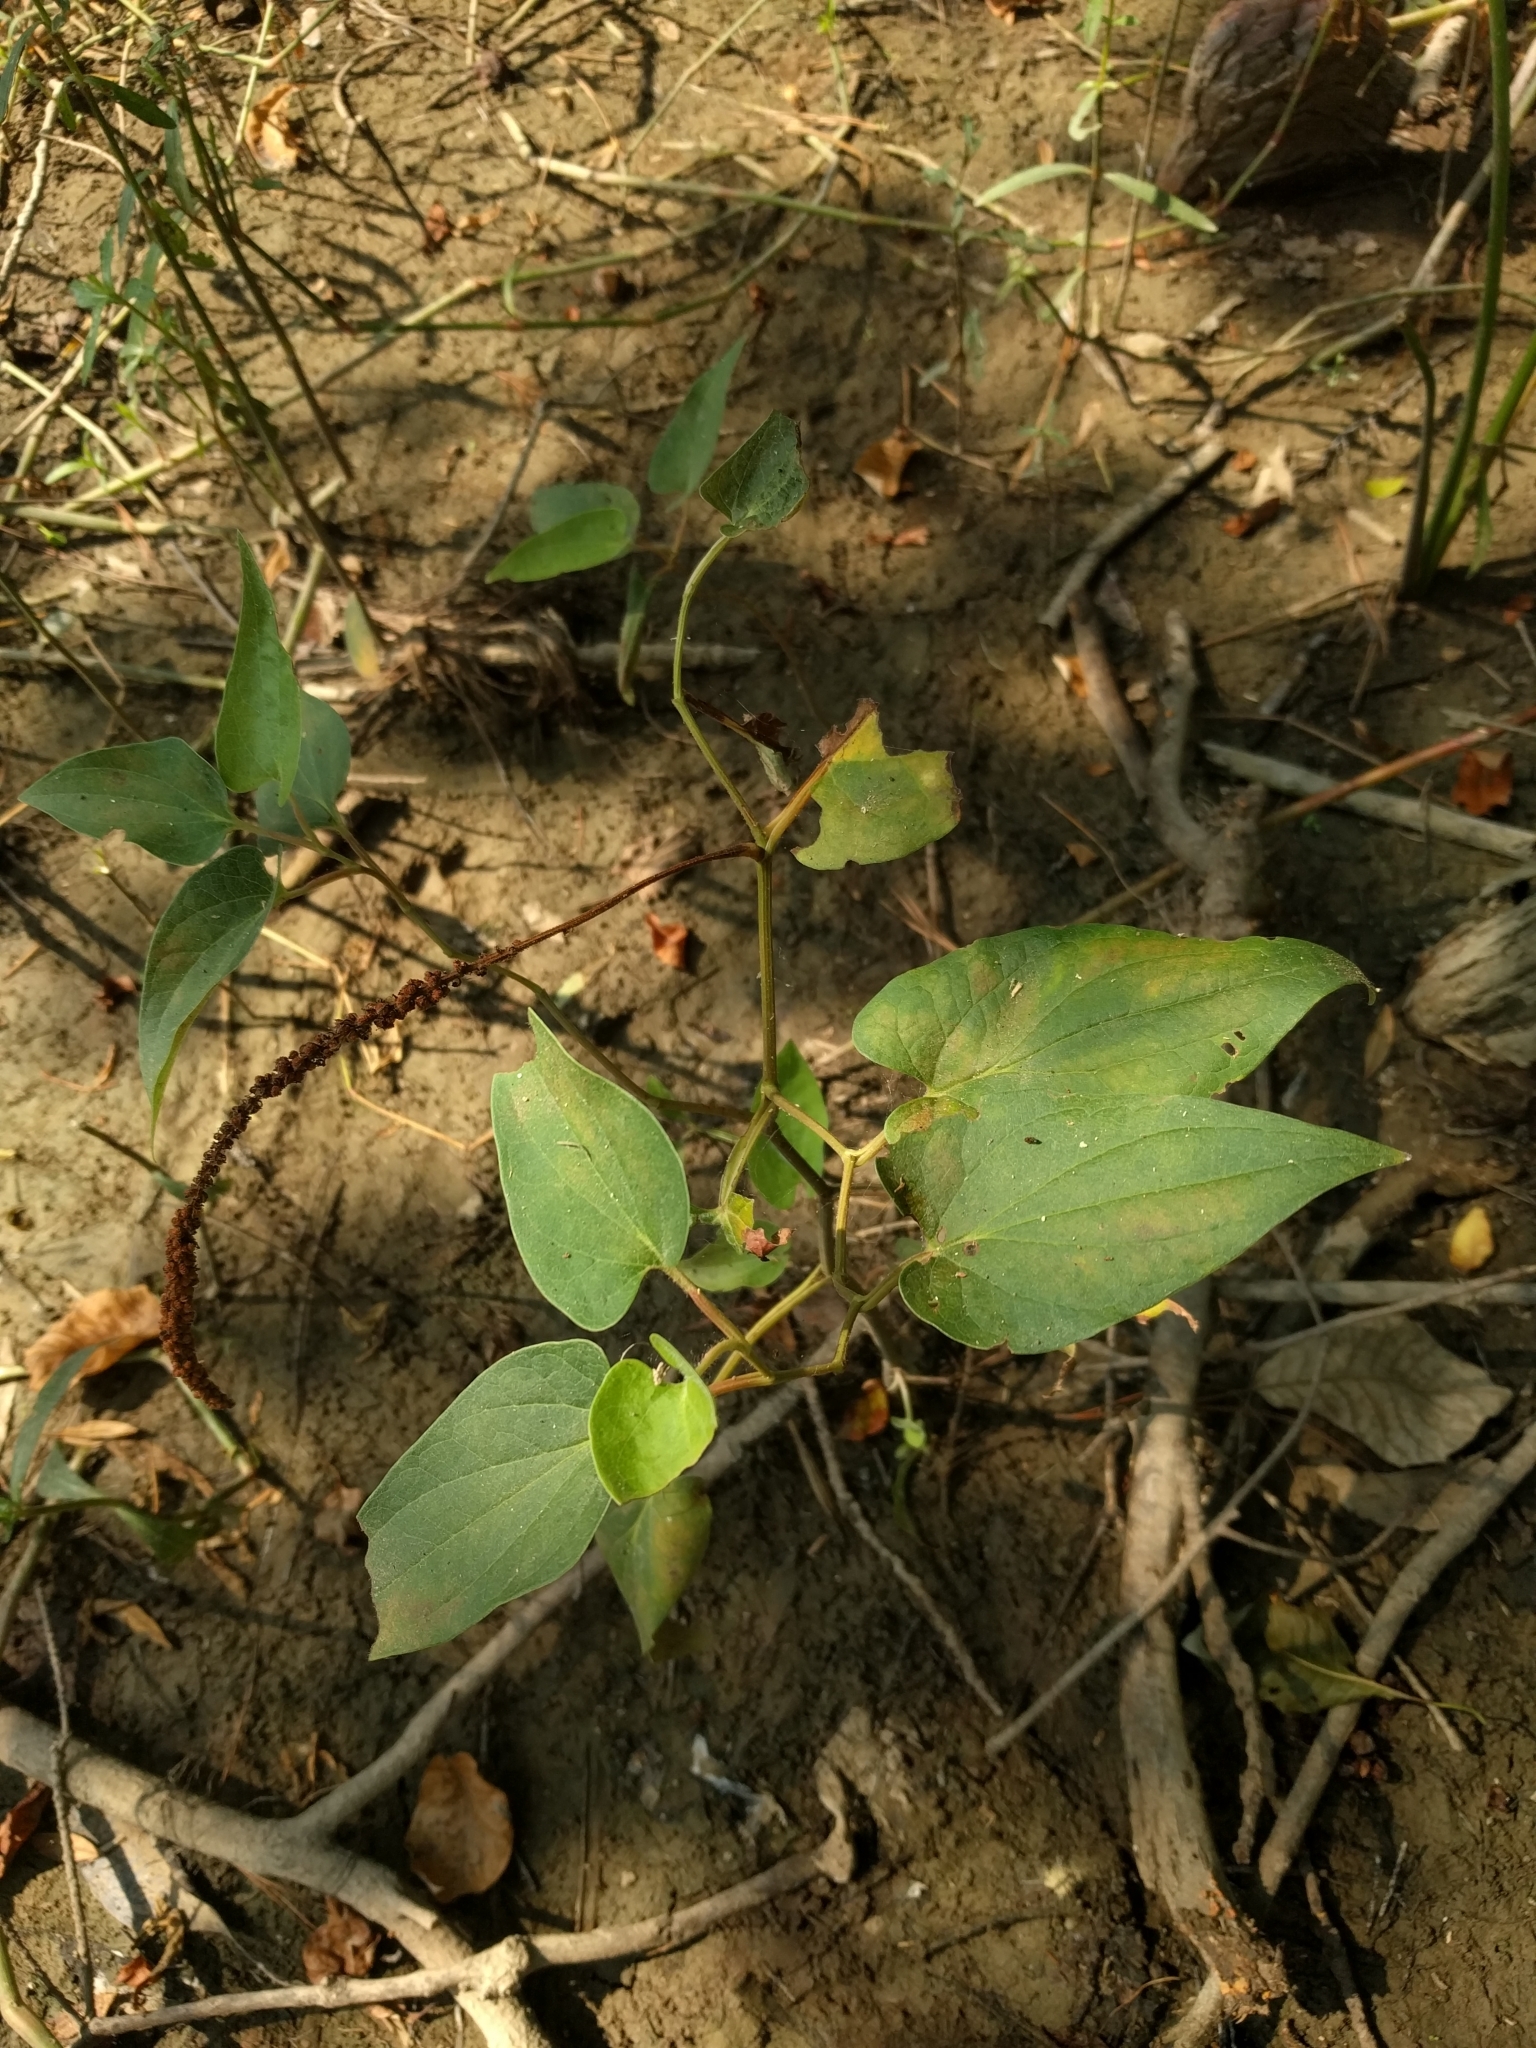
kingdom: Plantae
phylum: Tracheophyta
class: Magnoliopsida
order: Piperales
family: Saururaceae
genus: Saururus
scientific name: Saururus cernuus
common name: Lizard's-tail
